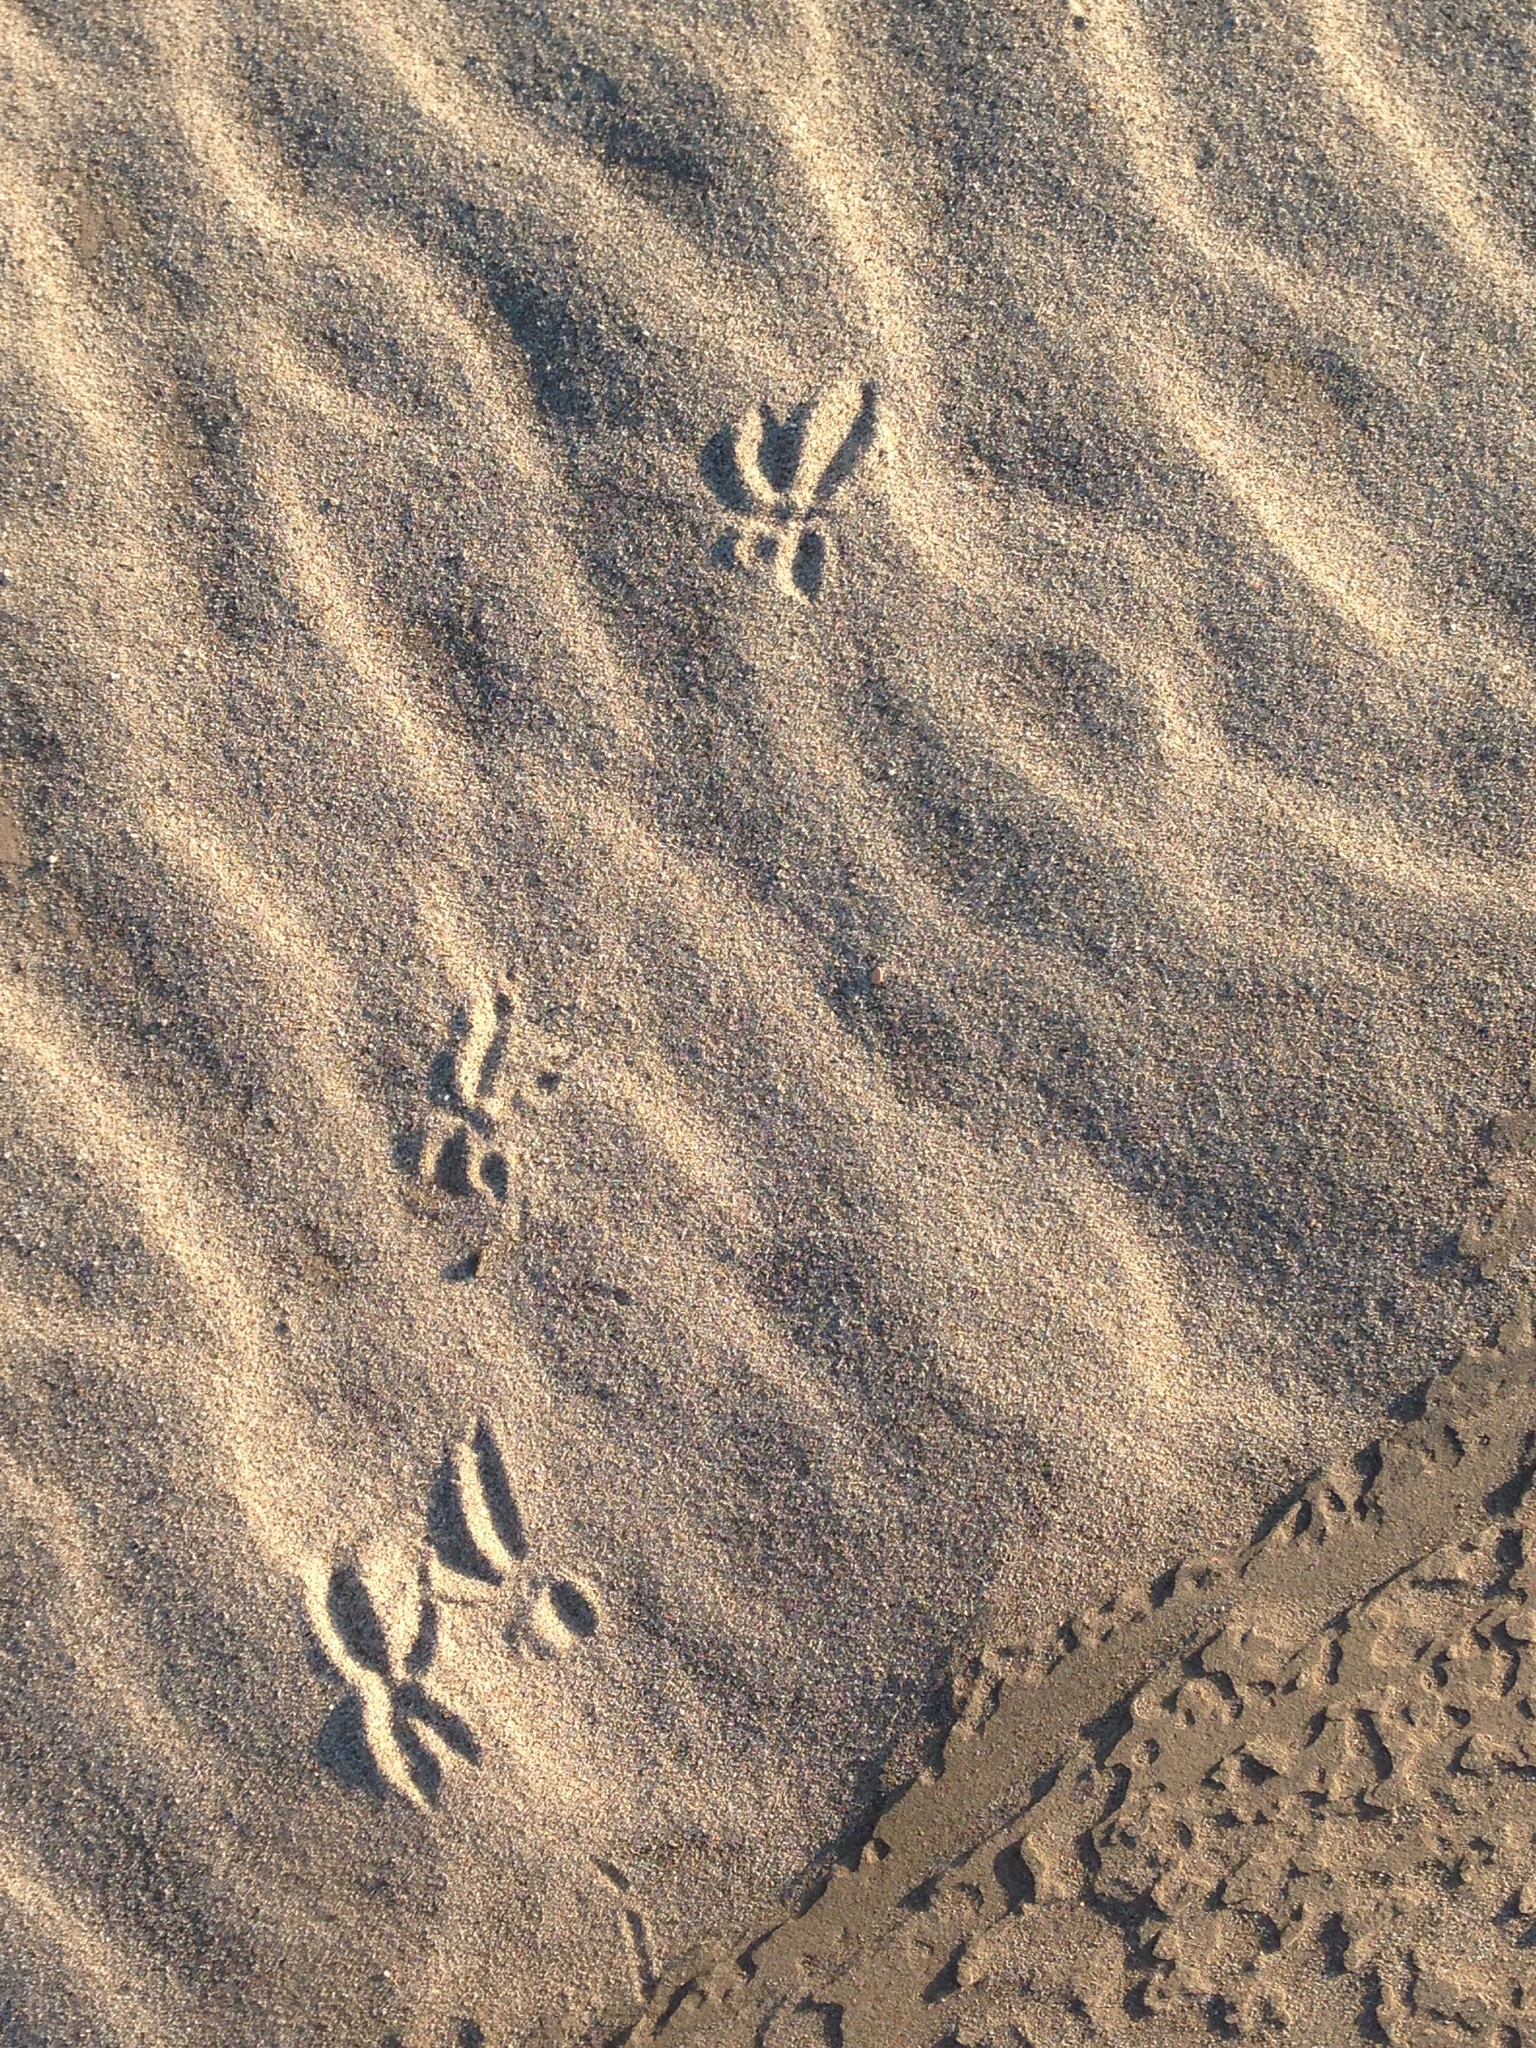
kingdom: Animalia
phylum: Chordata
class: Aves
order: Cuculiformes
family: Cuculidae
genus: Geococcyx
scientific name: Geococcyx californianus
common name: Greater roadrunner
